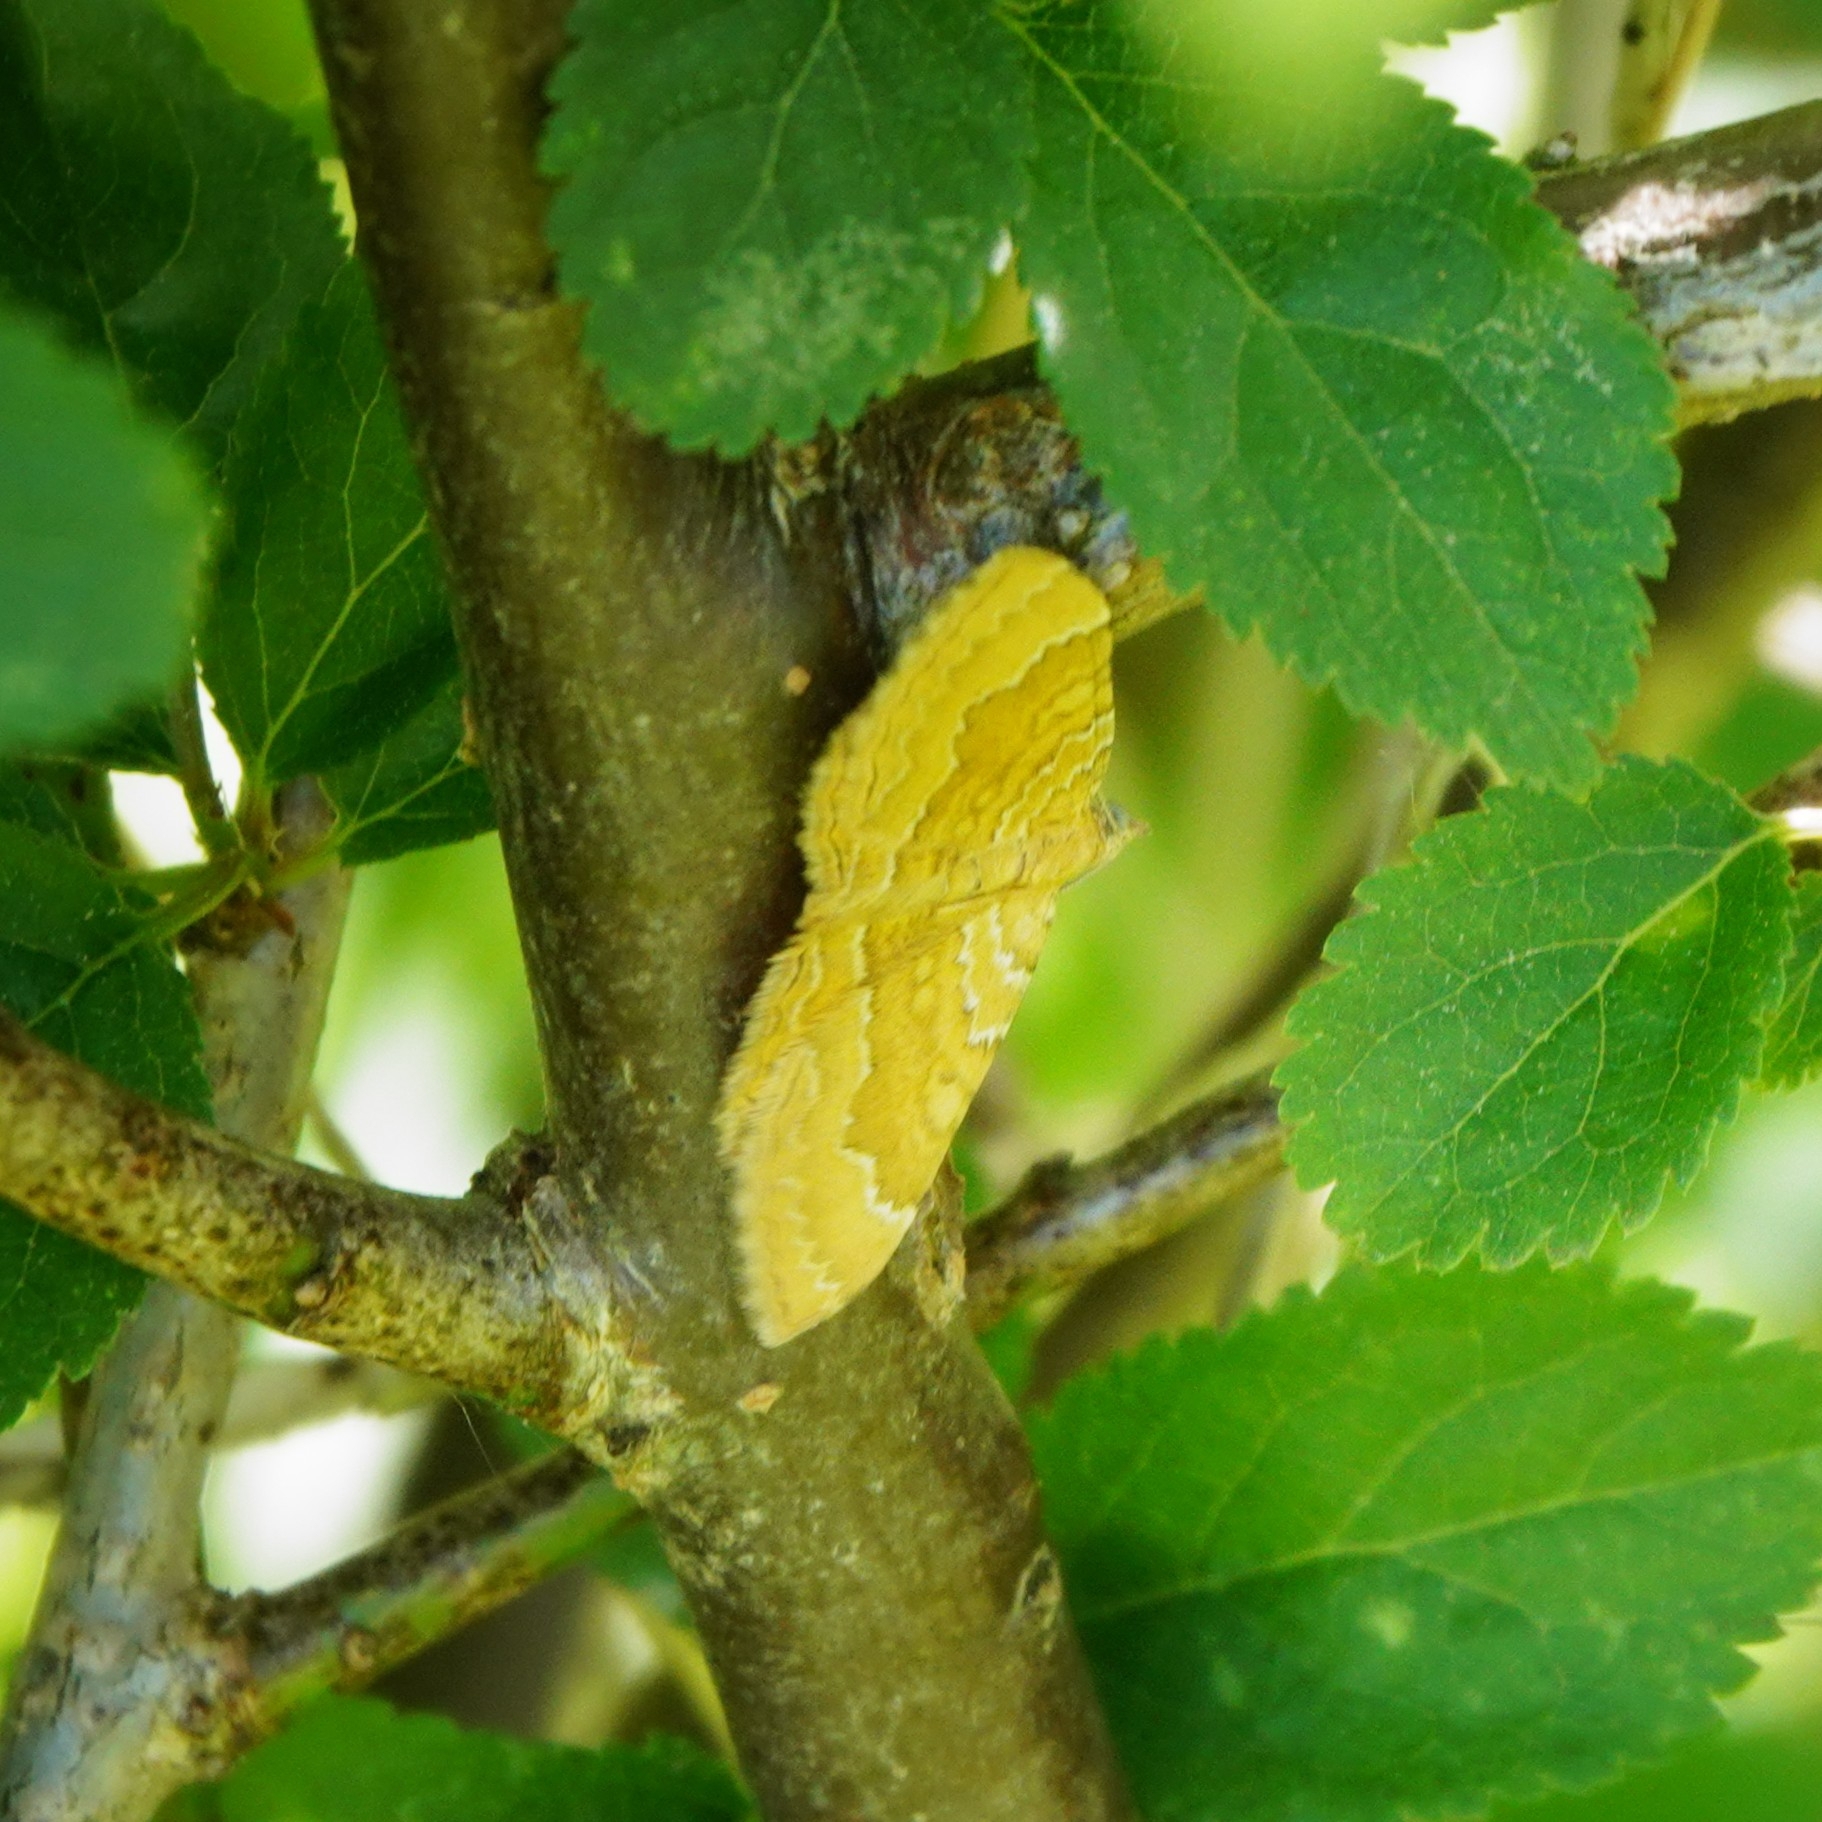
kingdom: Animalia
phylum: Arthropoda
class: Insecta
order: Lepidoptera
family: Geometridae
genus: Camptogramma
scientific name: Camptogramma bilineata
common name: Yellow shell
